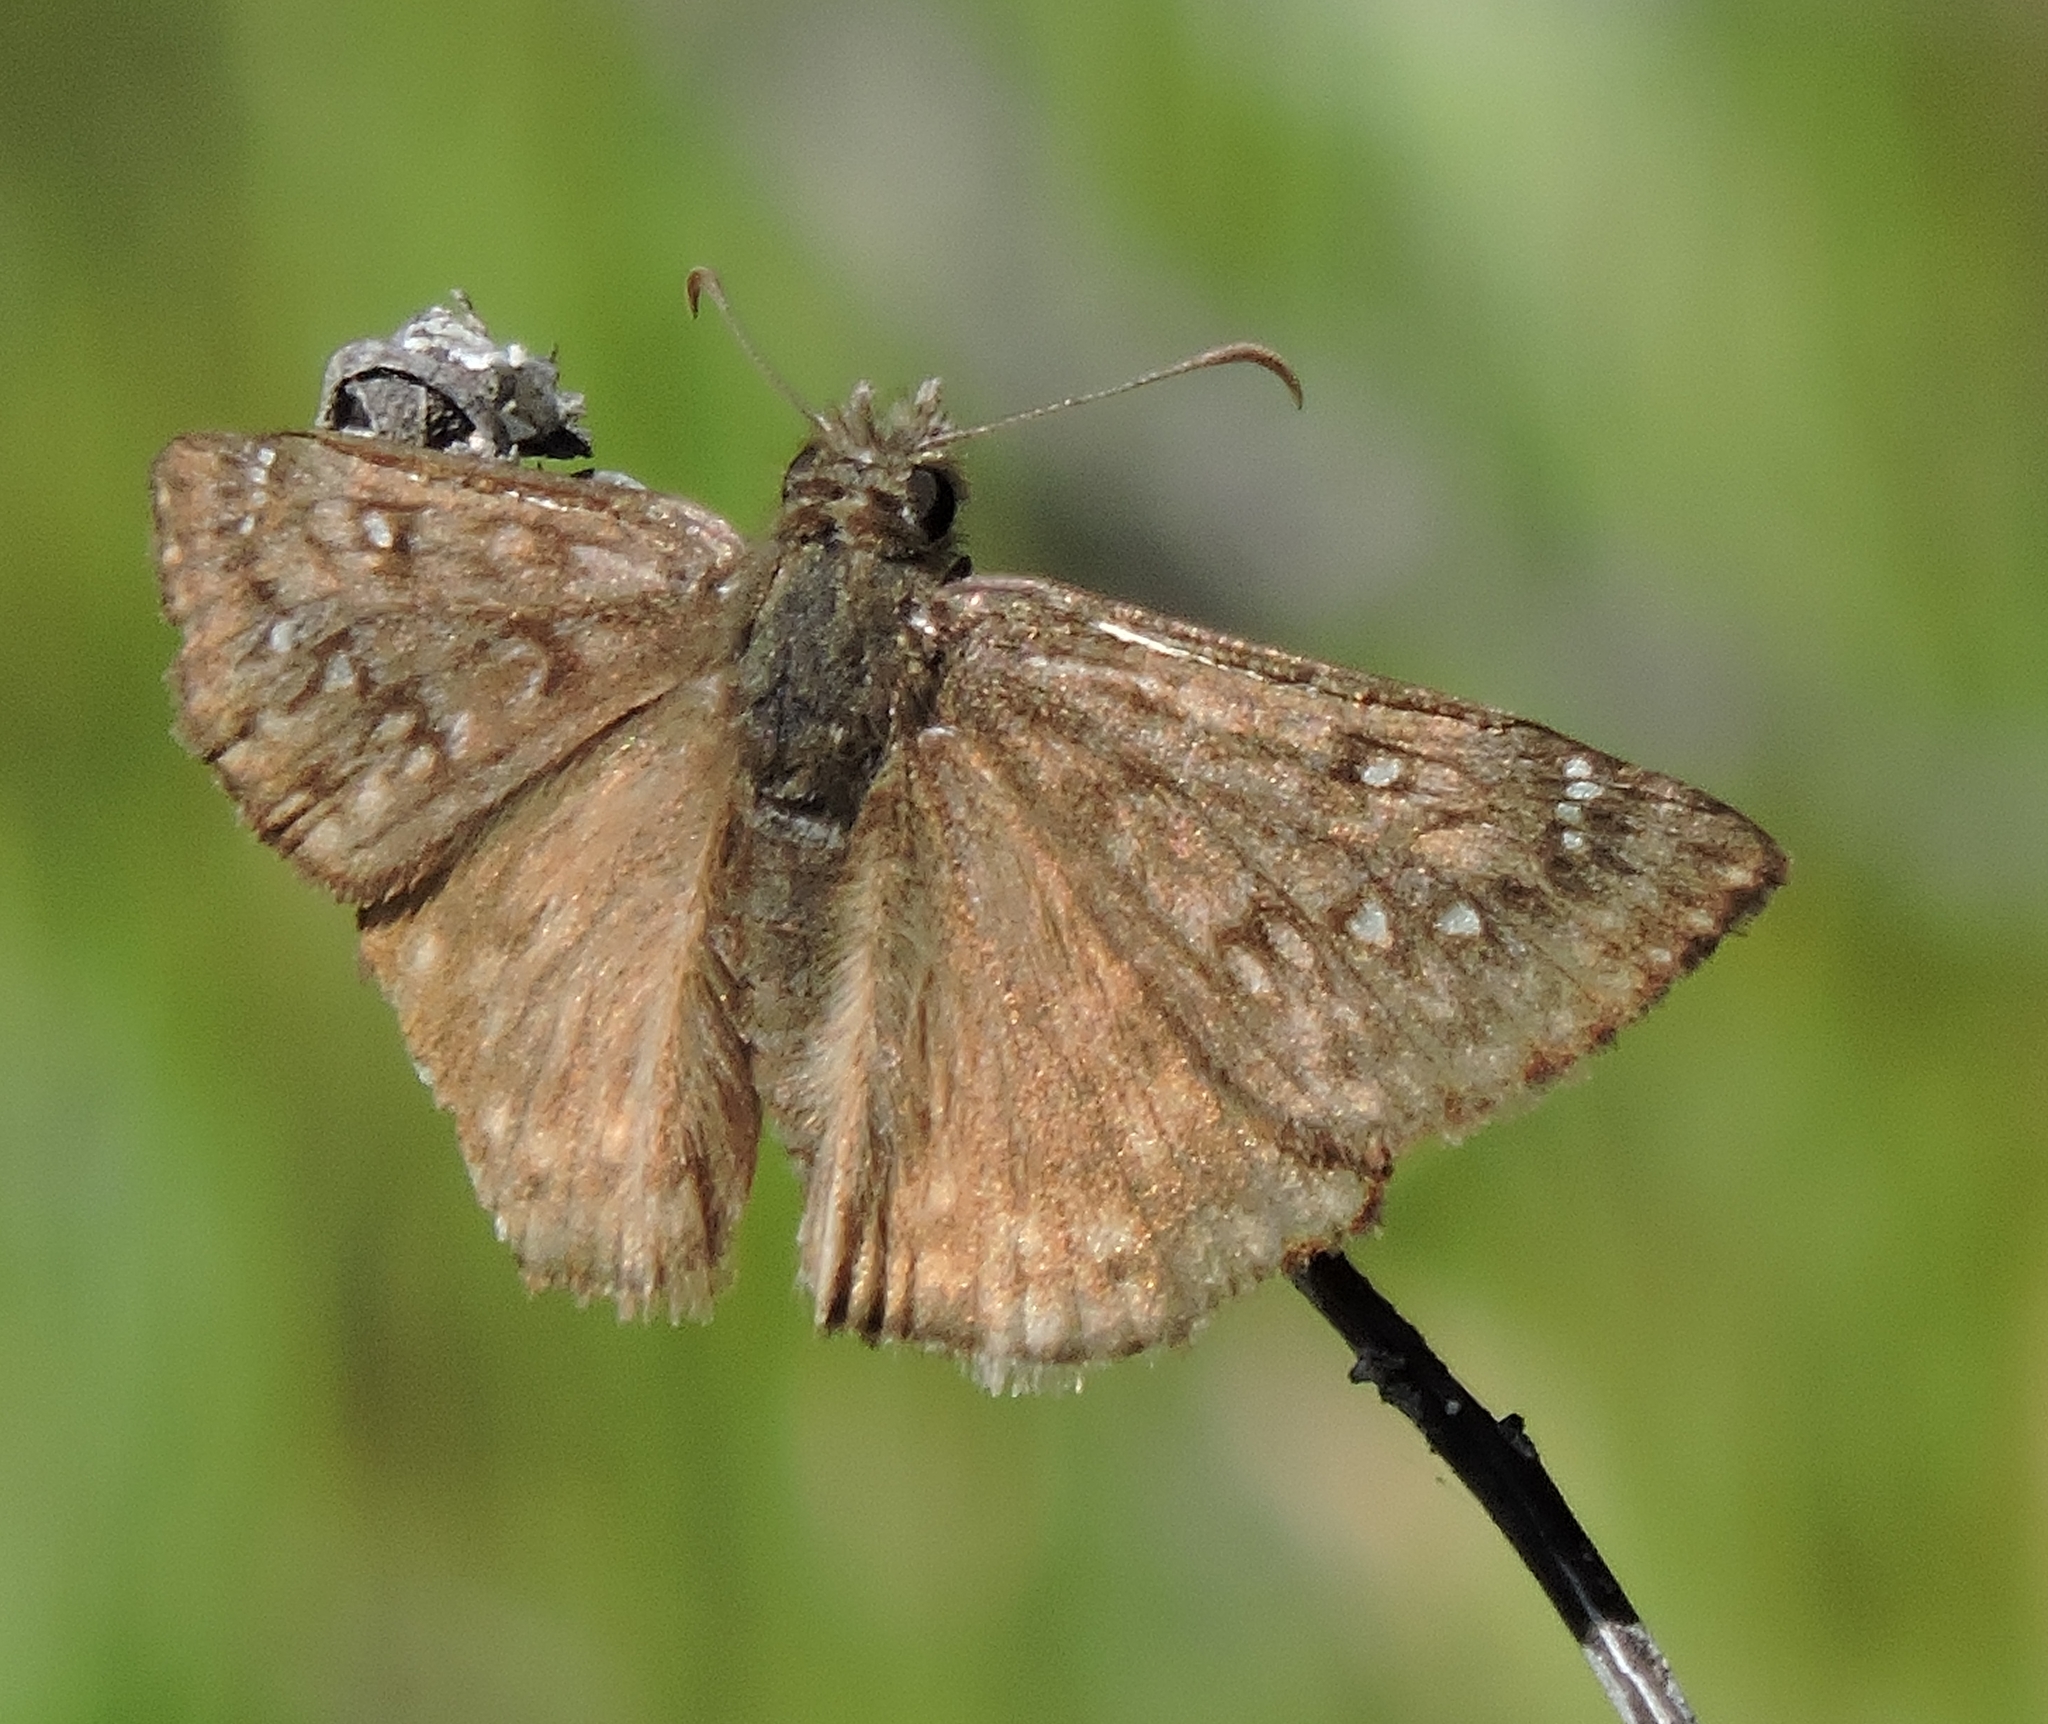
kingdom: Animalia
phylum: Arthropoda
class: Insecta
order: Lepidoptera
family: Hesperiidae
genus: Erynnis
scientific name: Erynnis propertius
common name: Propertius duskywing
